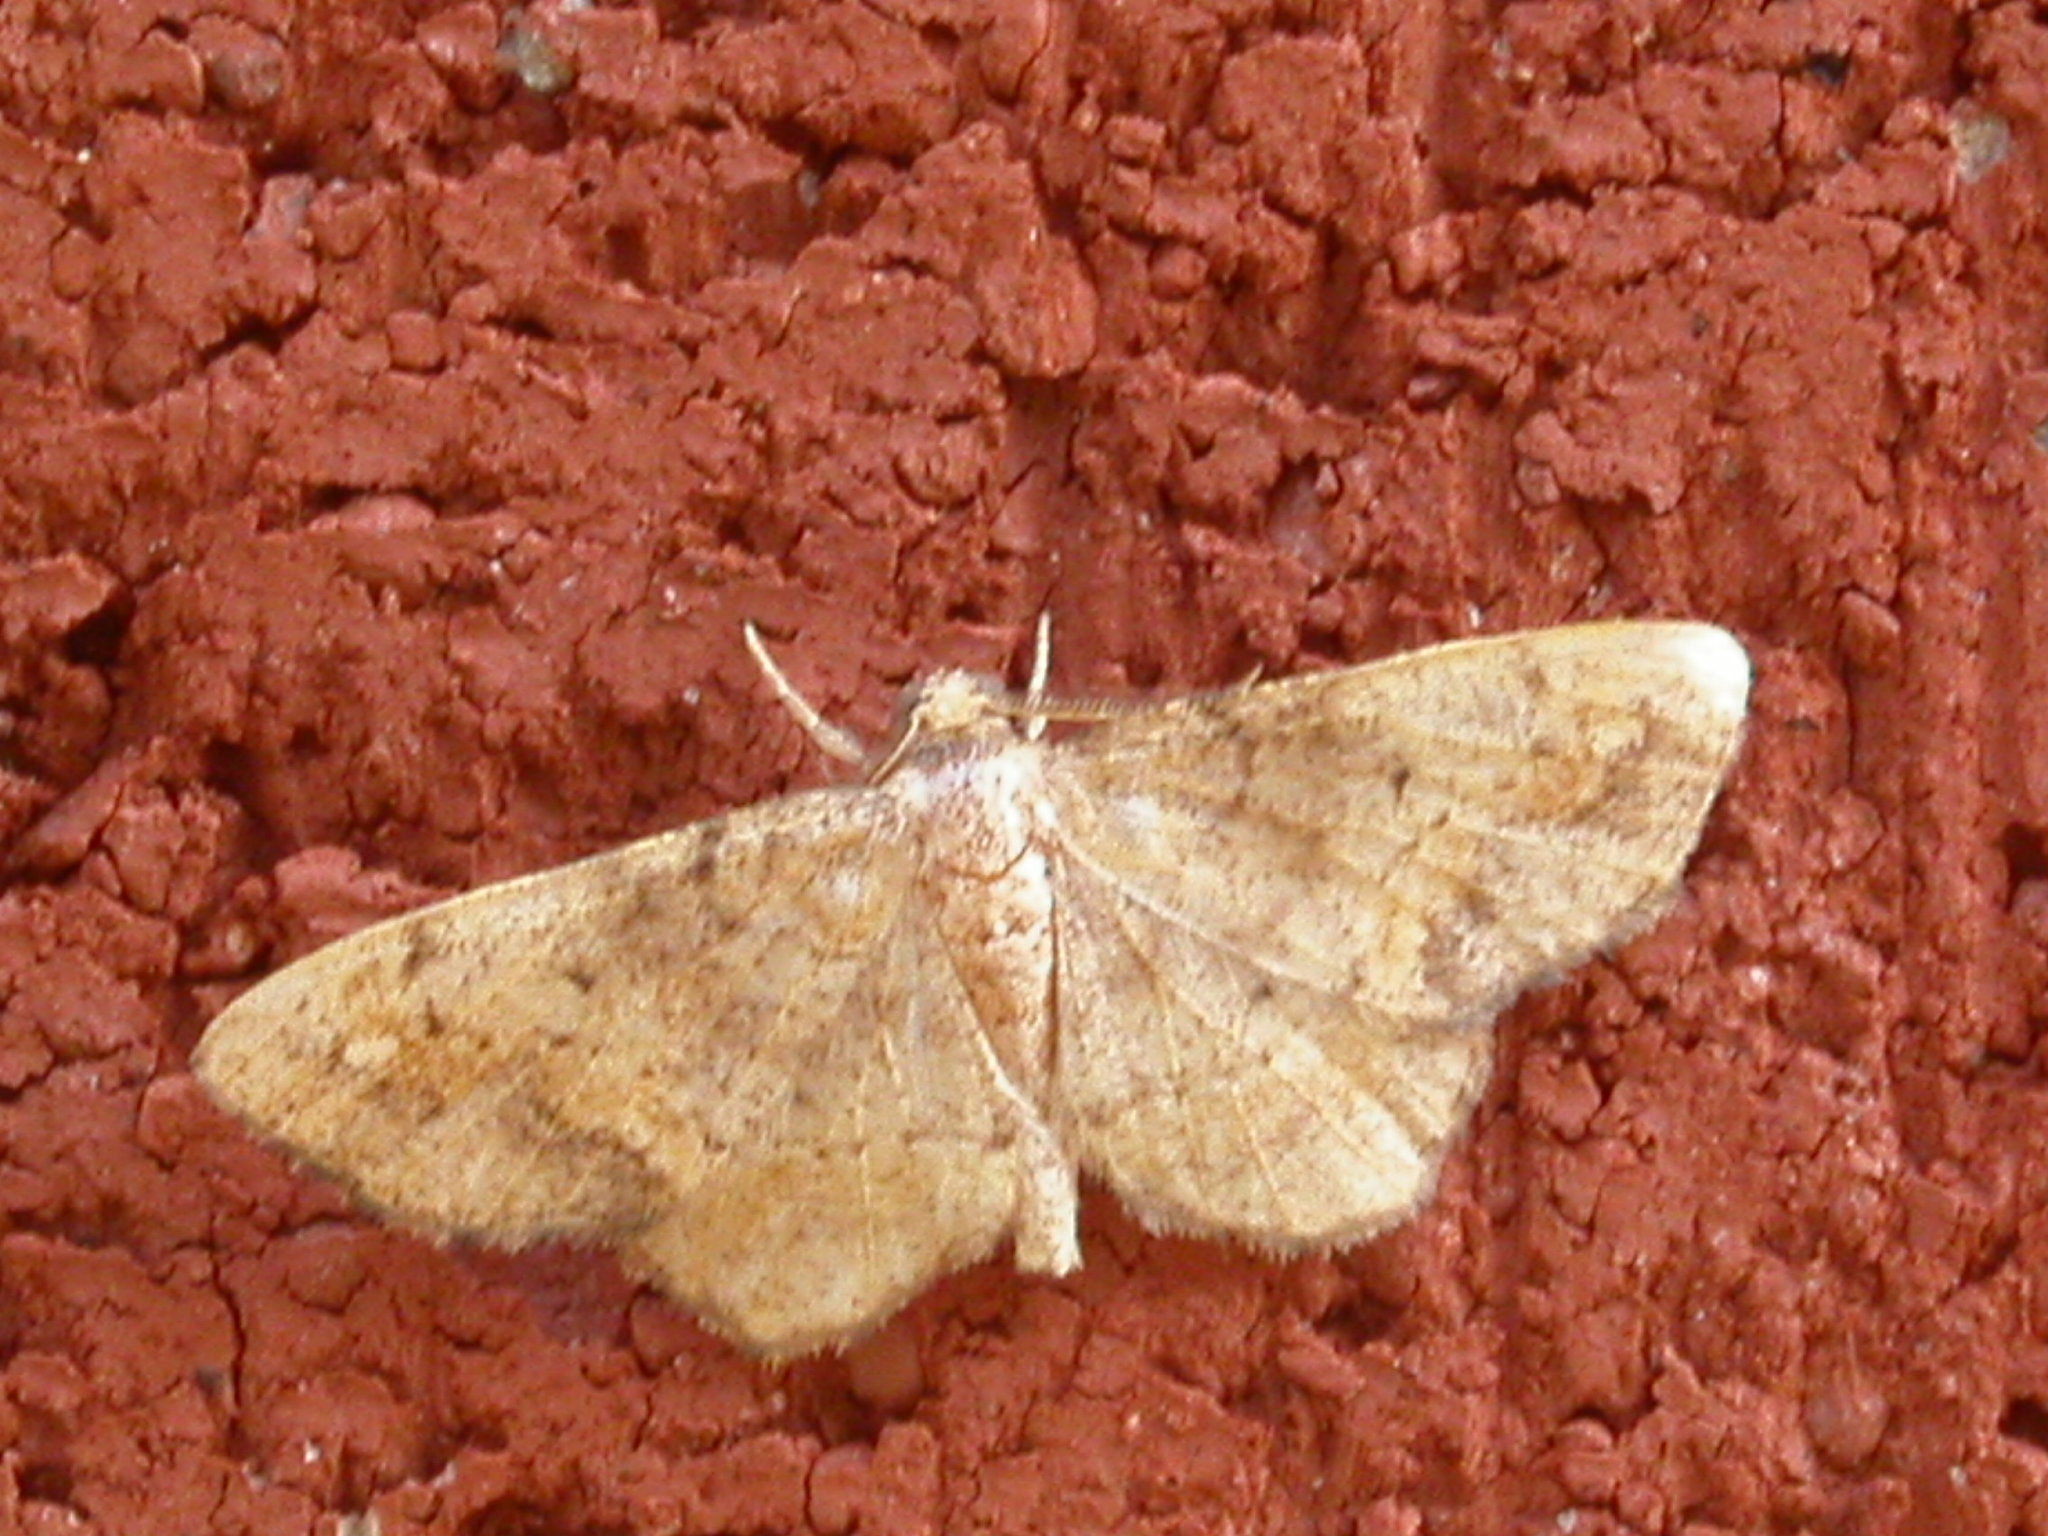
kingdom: Animalia
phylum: Arthropoda
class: Insecta
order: Lepidoptera
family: Geometridae
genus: Hypagyrtis
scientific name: Hypagyrtis unipunctata
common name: One-spotted variant
